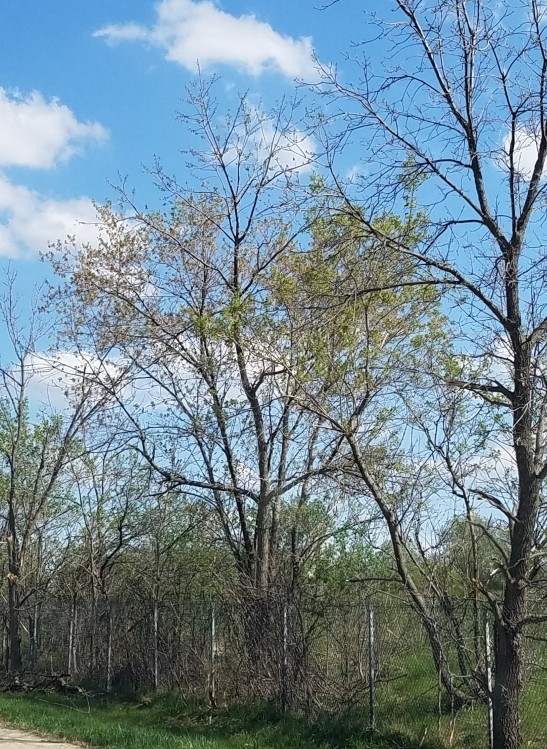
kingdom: Plantae
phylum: Tracheophyta
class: Magnoliopsida
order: Sapindales
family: Sapindaceae
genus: Acer
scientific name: Acer negundo
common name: Ashleaf maple
